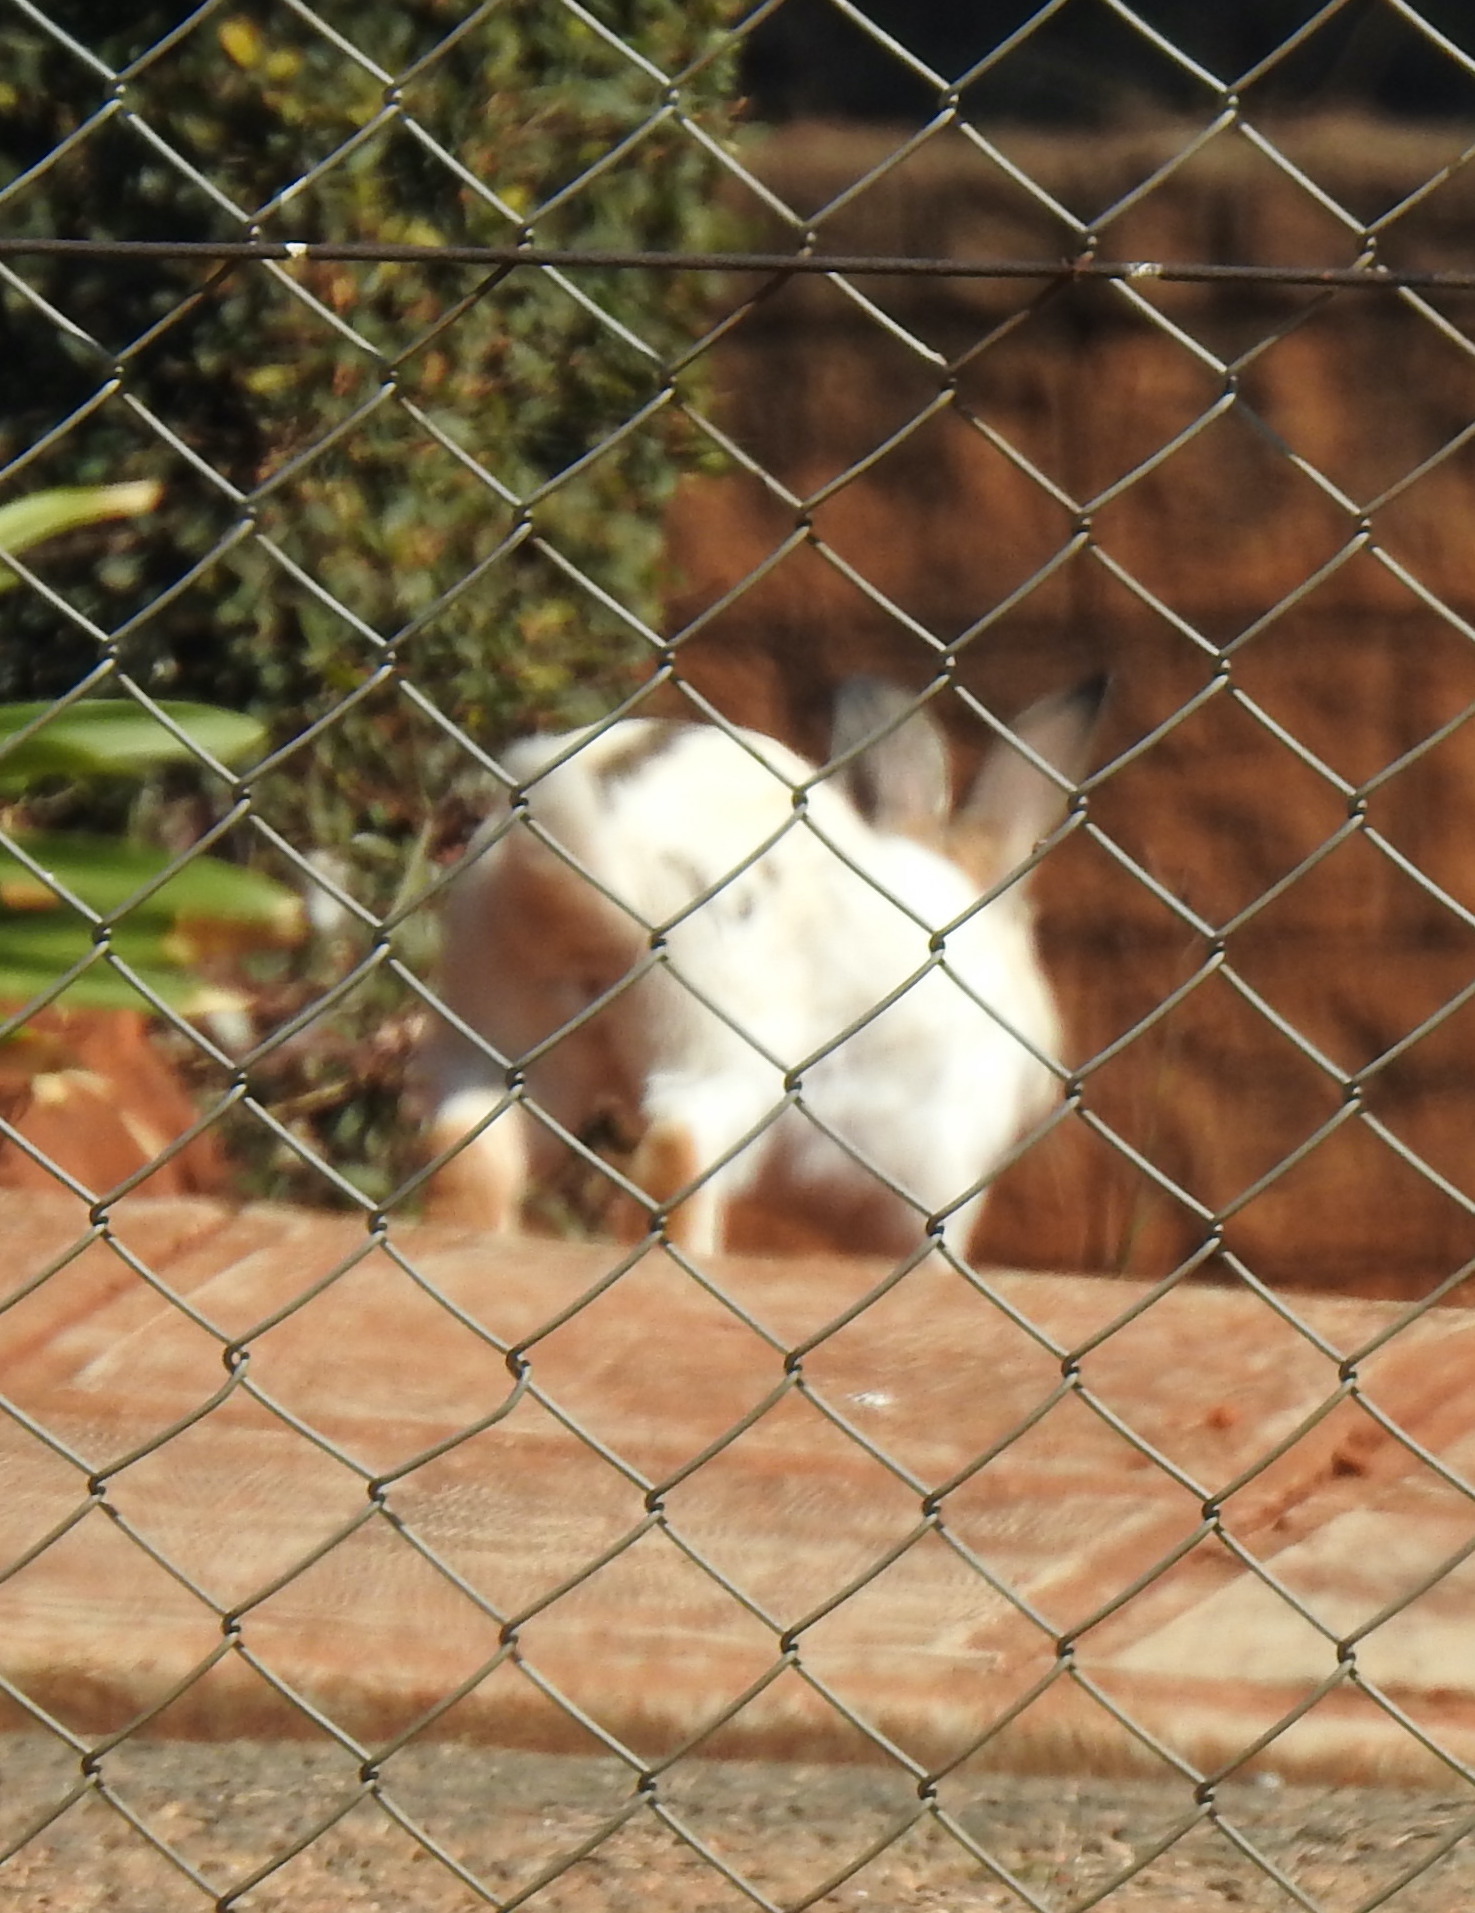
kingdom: Animalia
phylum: Chordata
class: Mammalia
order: Lagomorpha
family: Leporidae
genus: Oryctolagus
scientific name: Oryctolagus cuniculus
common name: European rabbit
